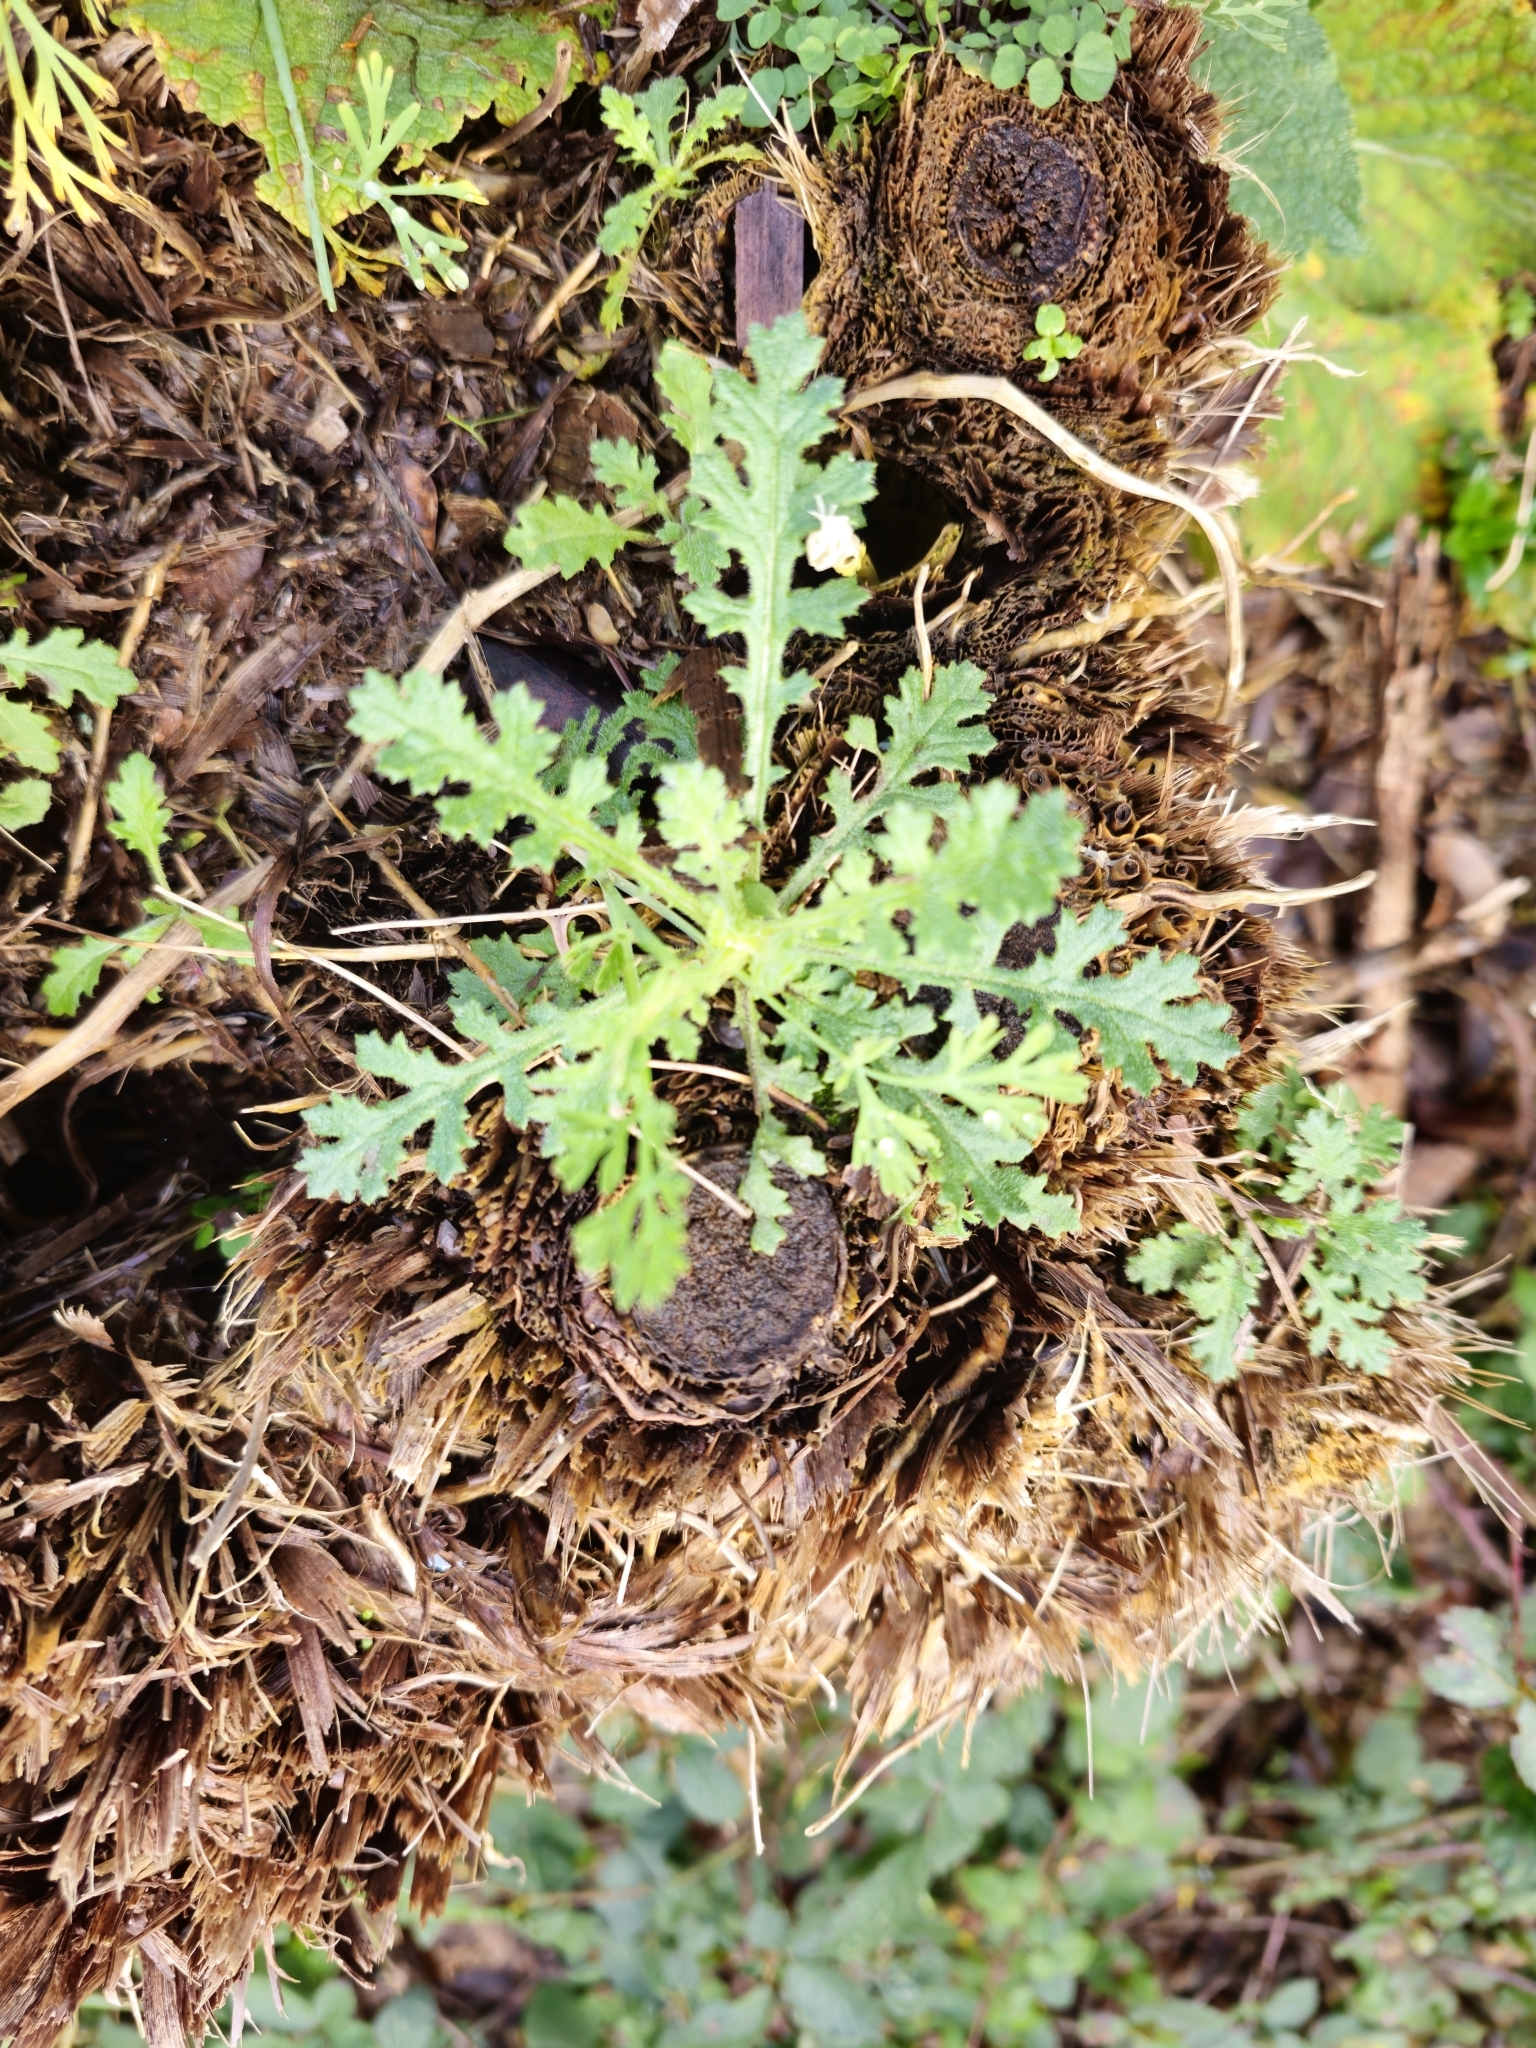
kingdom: Plantae
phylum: Tracheophyta
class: Magnoliopsida
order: Asterales
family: Asteraceae
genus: Senecio
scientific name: Senecio vulgaris
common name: Old-man-in-the-spring
